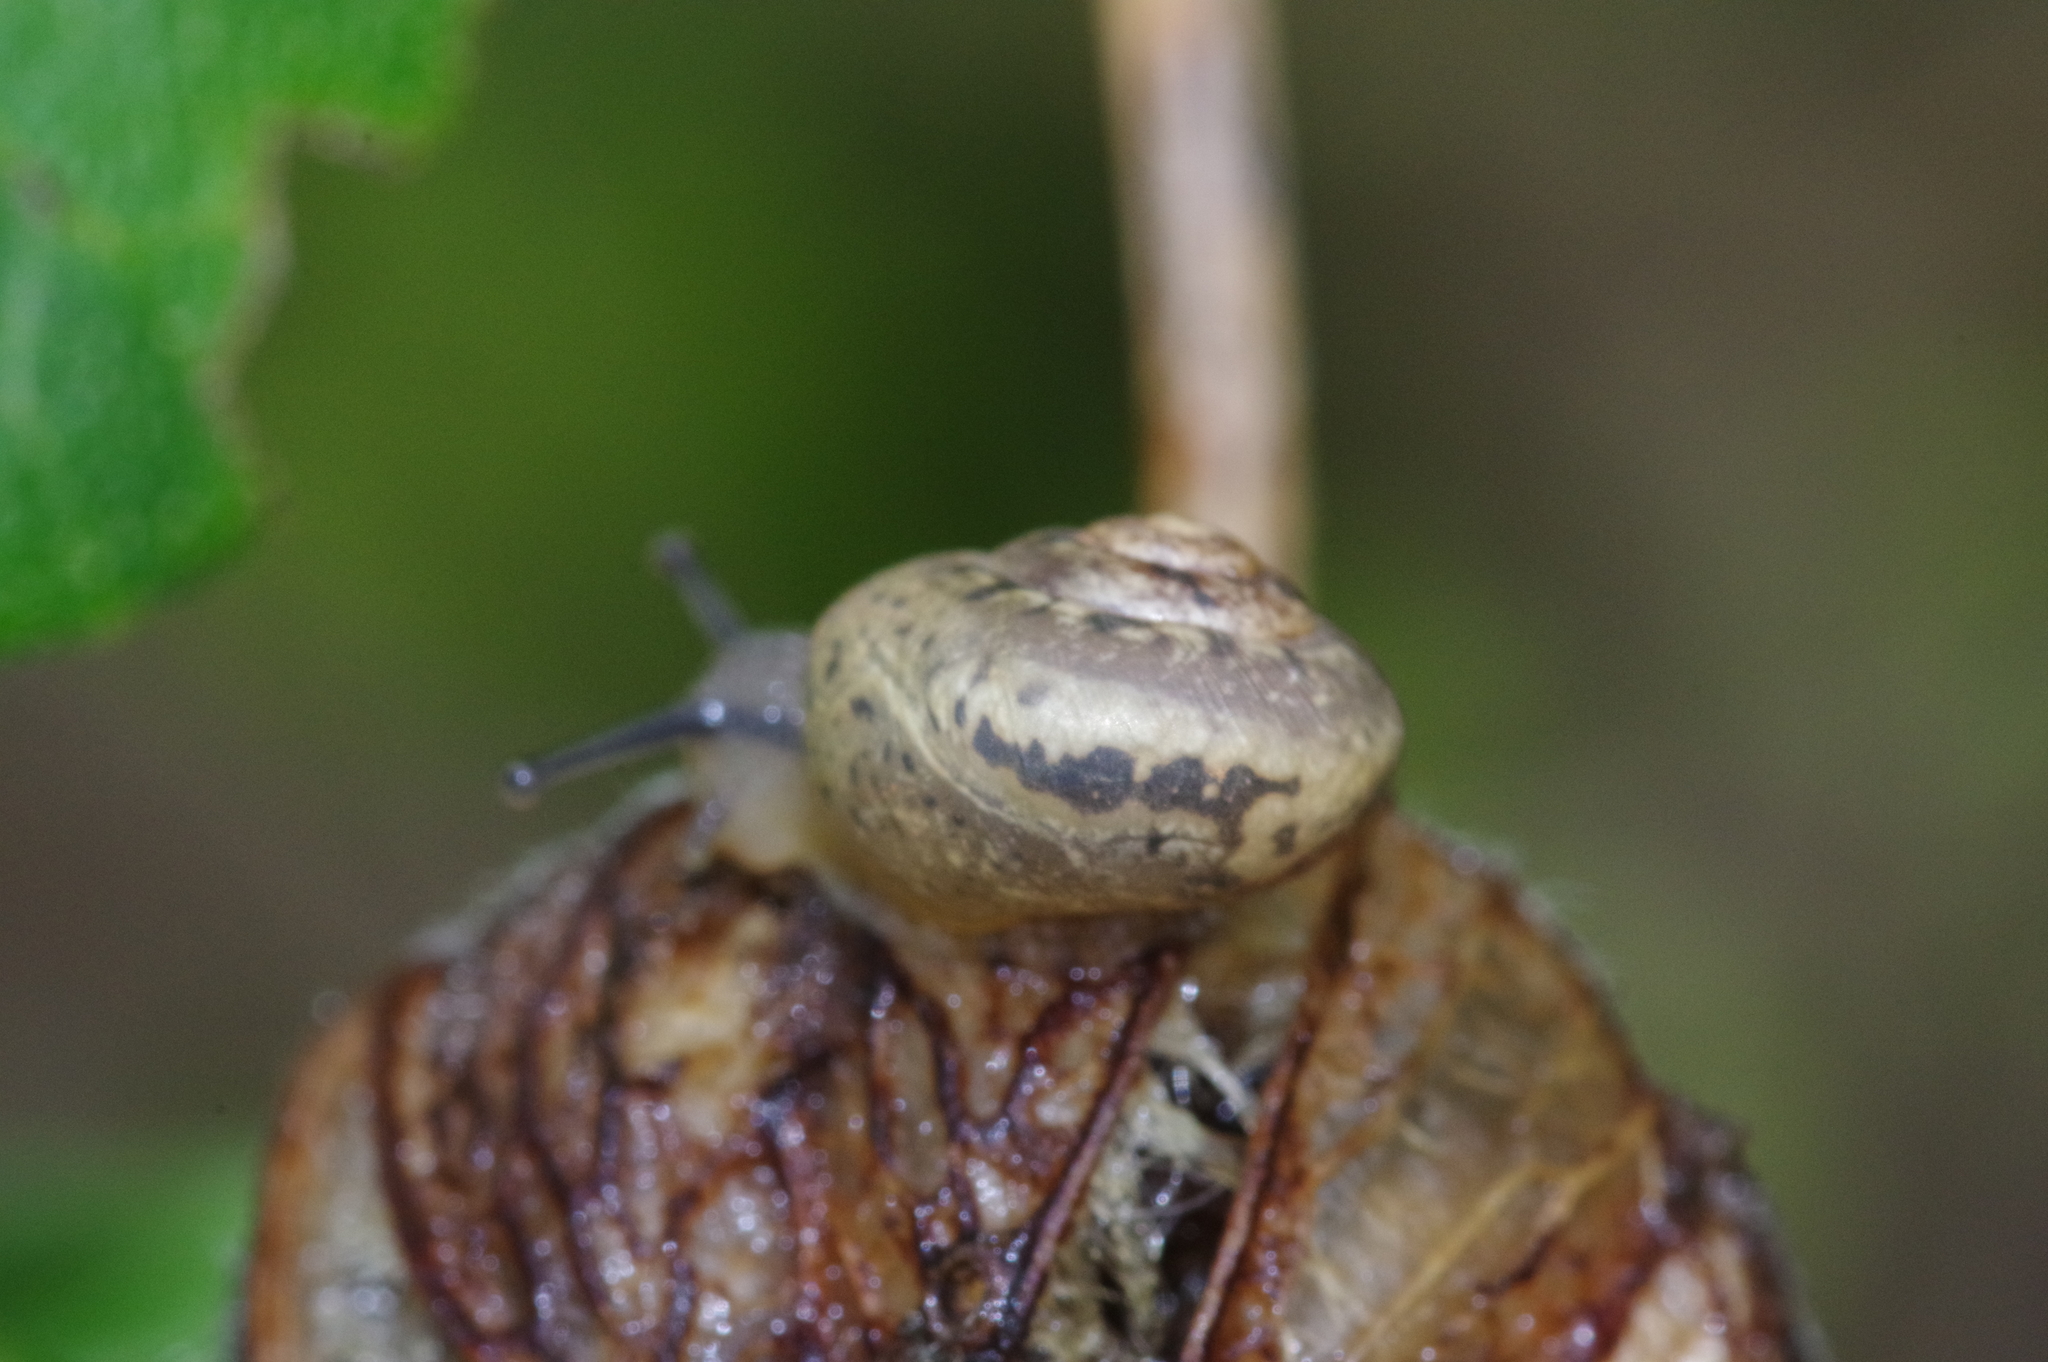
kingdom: Animalia
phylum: Mollusca
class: Gastropoda
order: Stylommatophora
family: Camaenidae
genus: Acusta
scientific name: Acusta despecta
